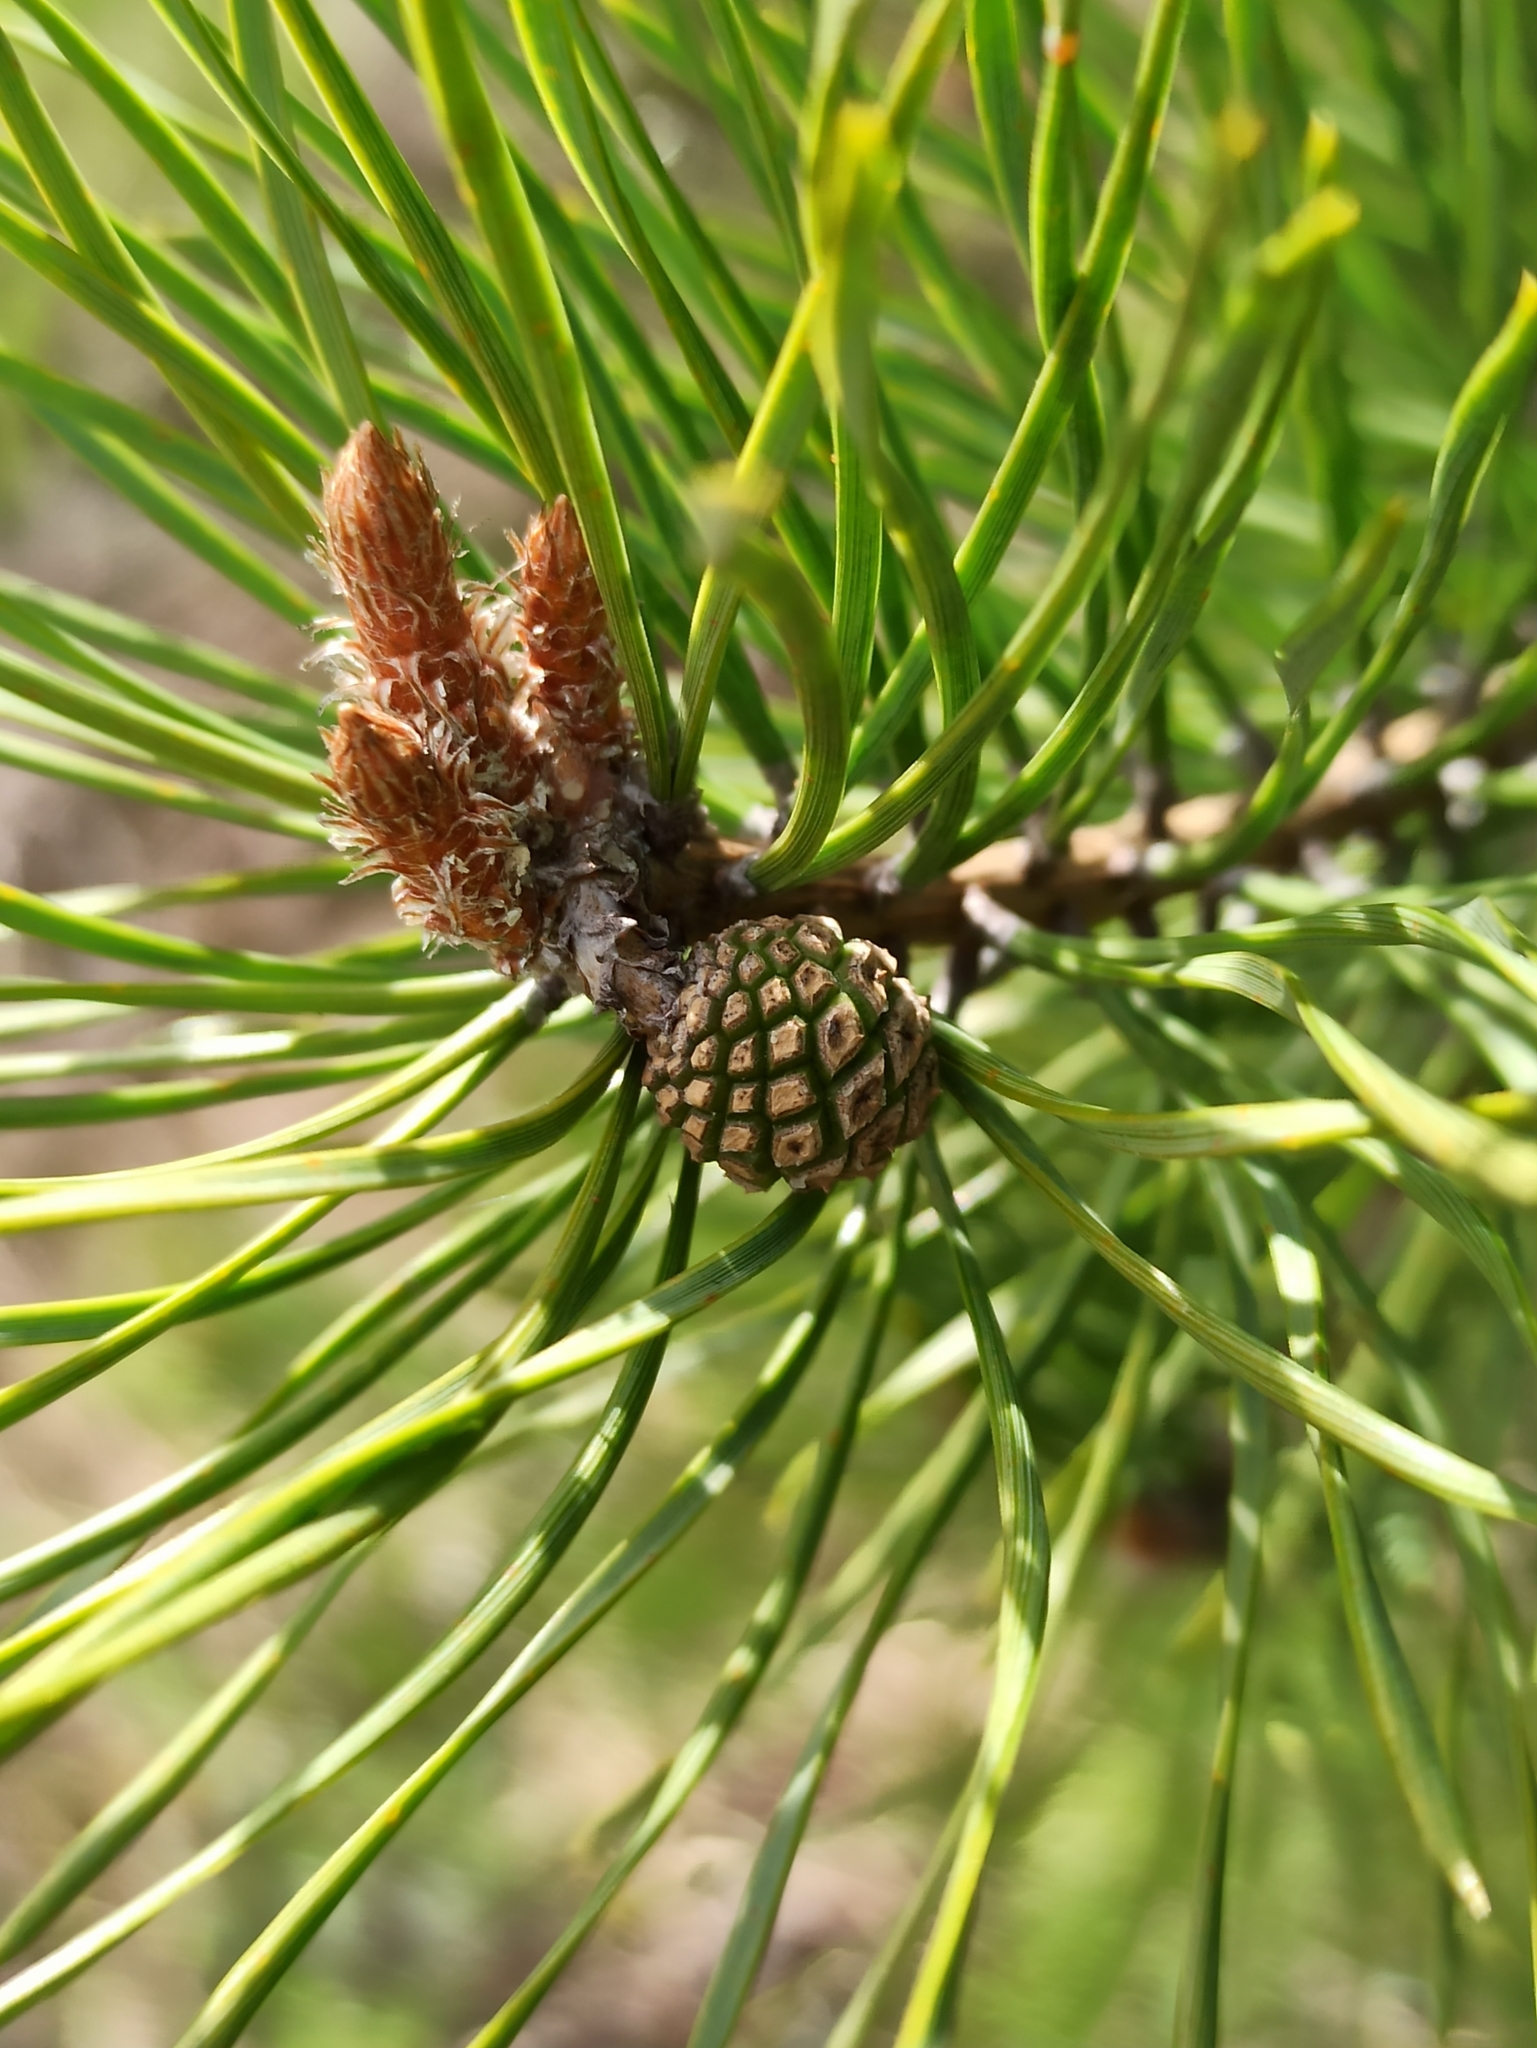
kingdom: Plantae
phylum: Tracheophyta
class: Pinopsida
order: Pinales
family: Pinaceae
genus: Pinus
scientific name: Pinus sylvestris
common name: Scots pine
